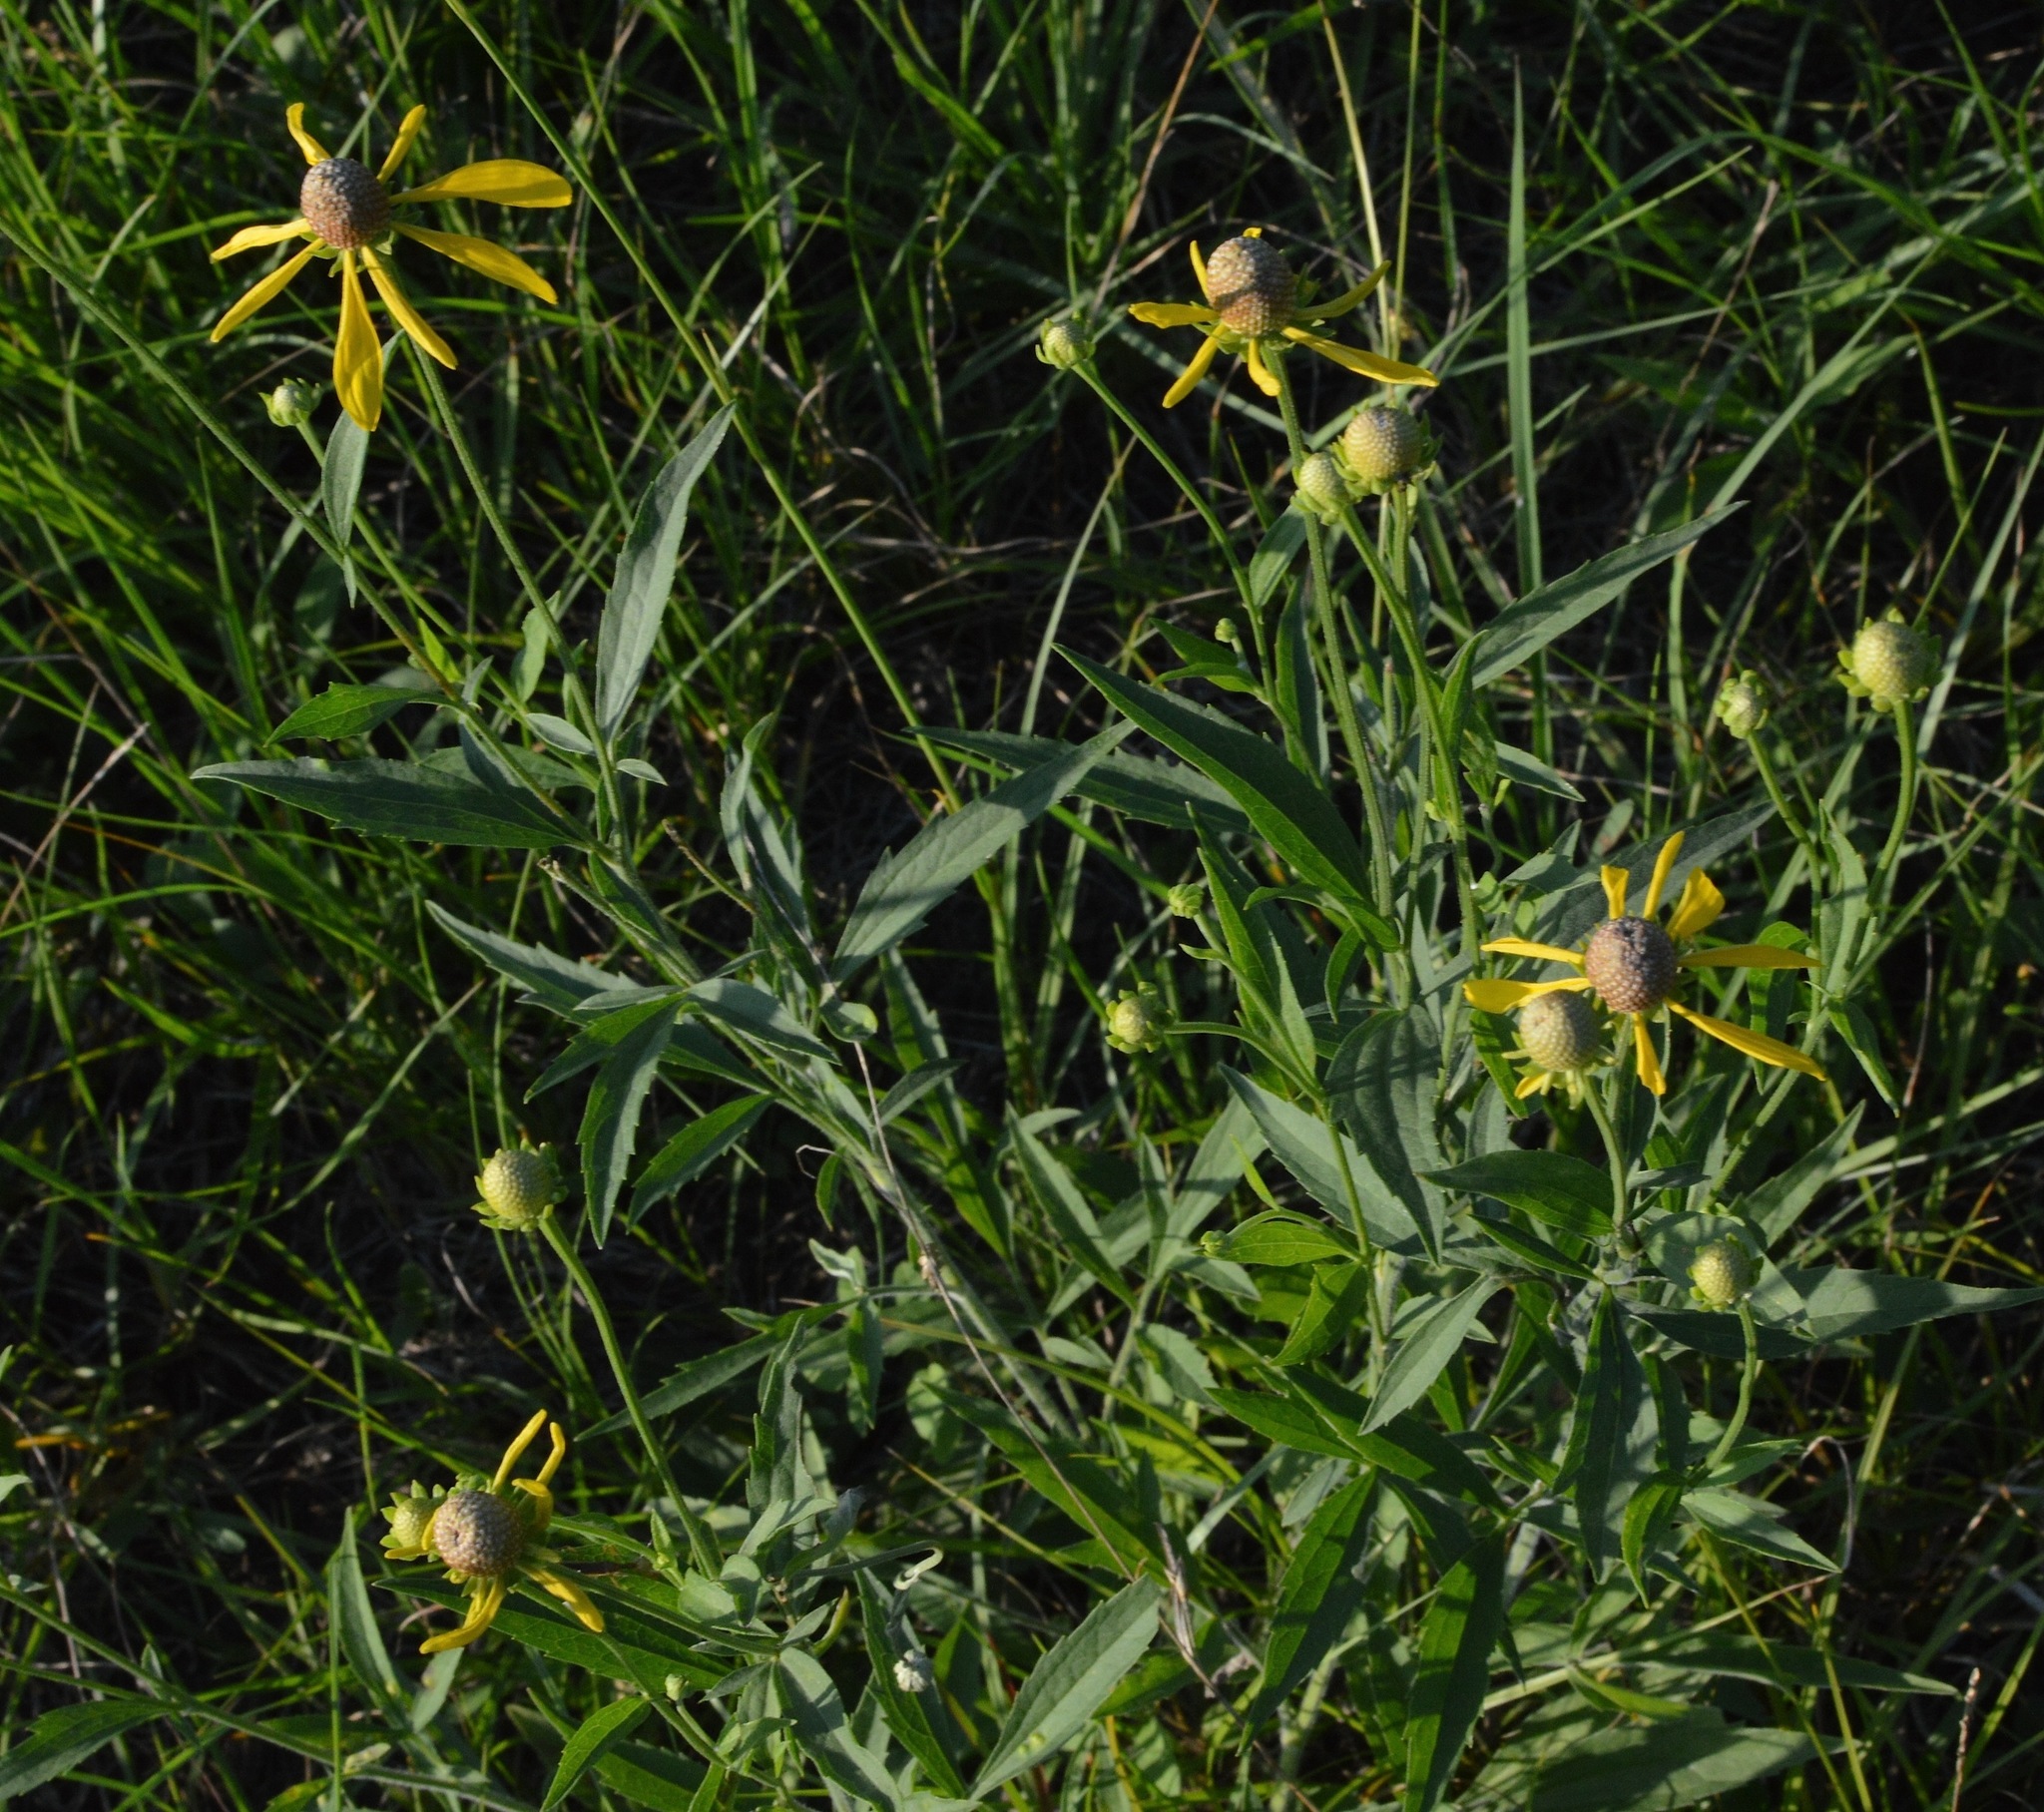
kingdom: Plantae
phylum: Tracheophyta
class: Magnoliopsida
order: Asterales
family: Asteraceae
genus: Ratibida
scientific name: Ratibida pinnata
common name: Drooping prairie-coneflower
